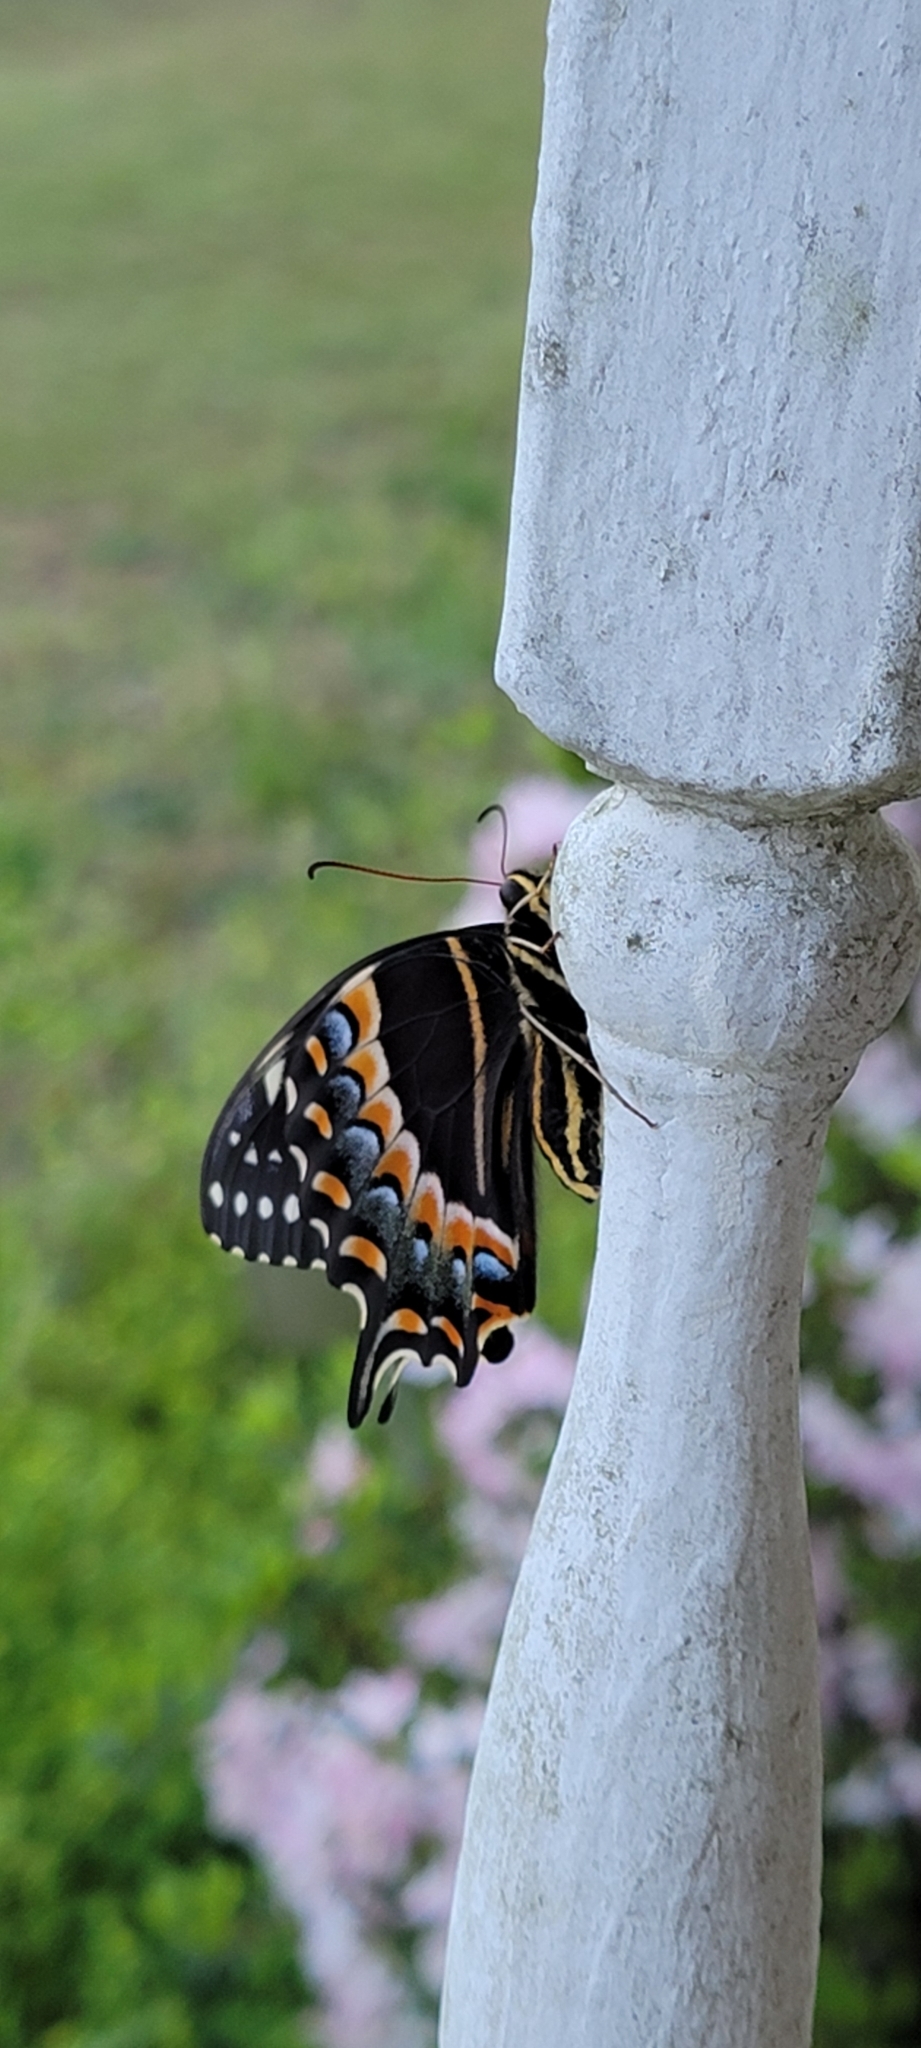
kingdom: Animalia
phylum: Arthropoda
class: Insecta
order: Lepidoptera
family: Papilionidae
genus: Papilio
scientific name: Papilio palamedes
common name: Palamedes swallowtail
